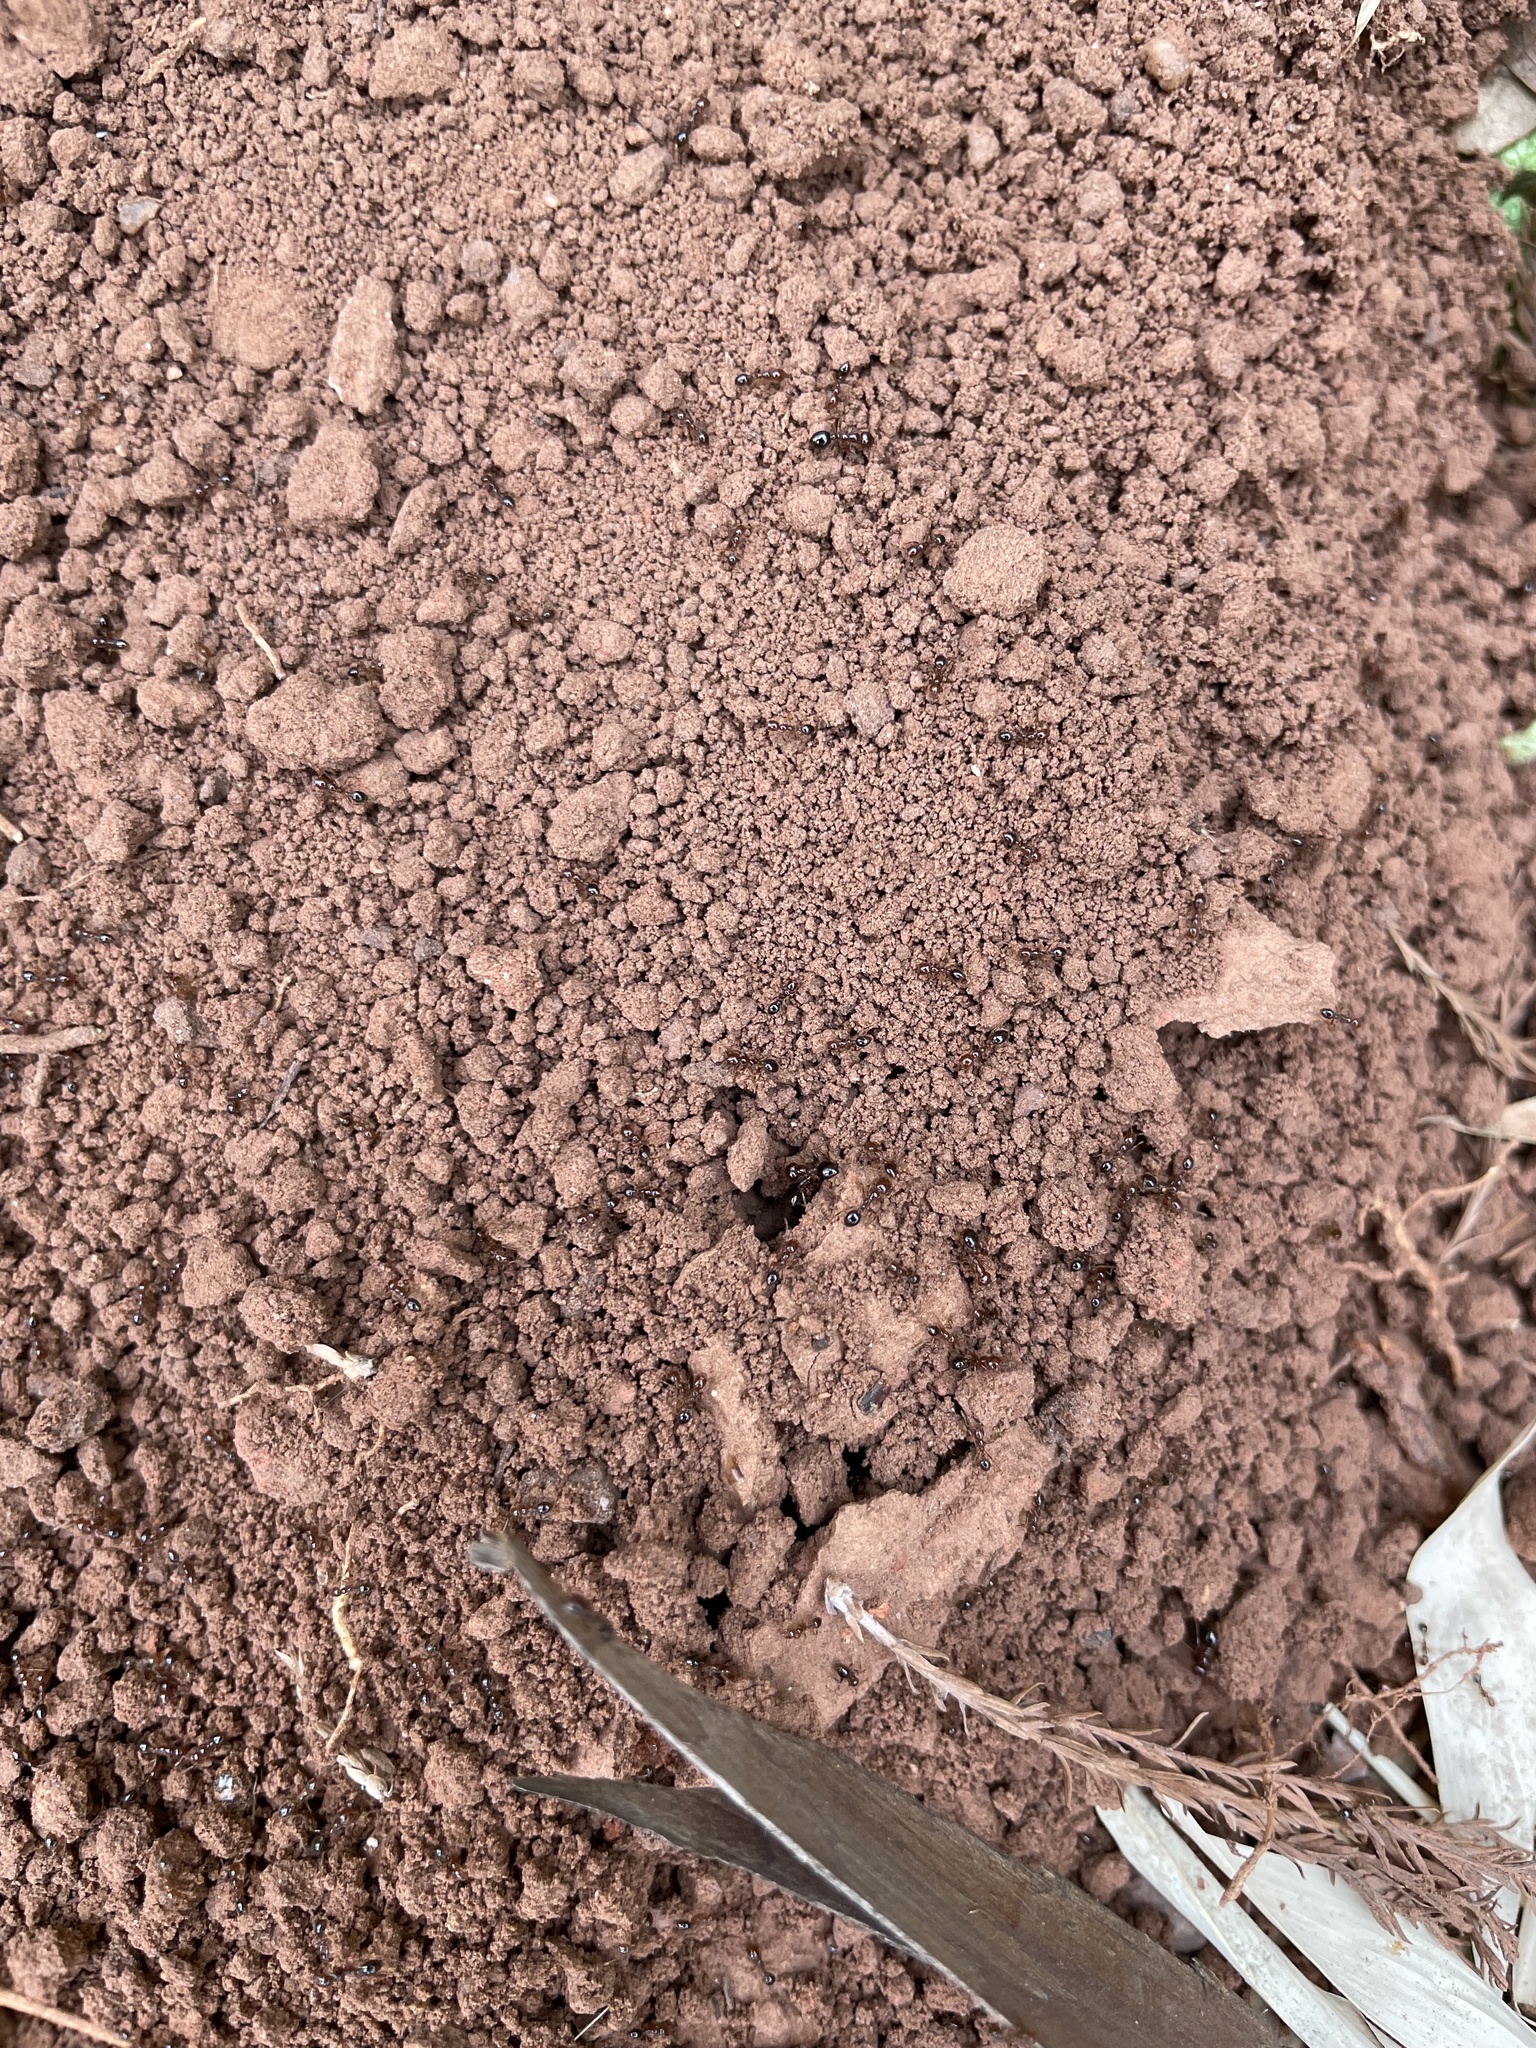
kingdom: Animalia
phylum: Arthropoda
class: Insecta
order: Hymenoptera
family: Formicidae
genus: Solenopsis
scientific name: Solenopsis invicta
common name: Red imported fire ant
